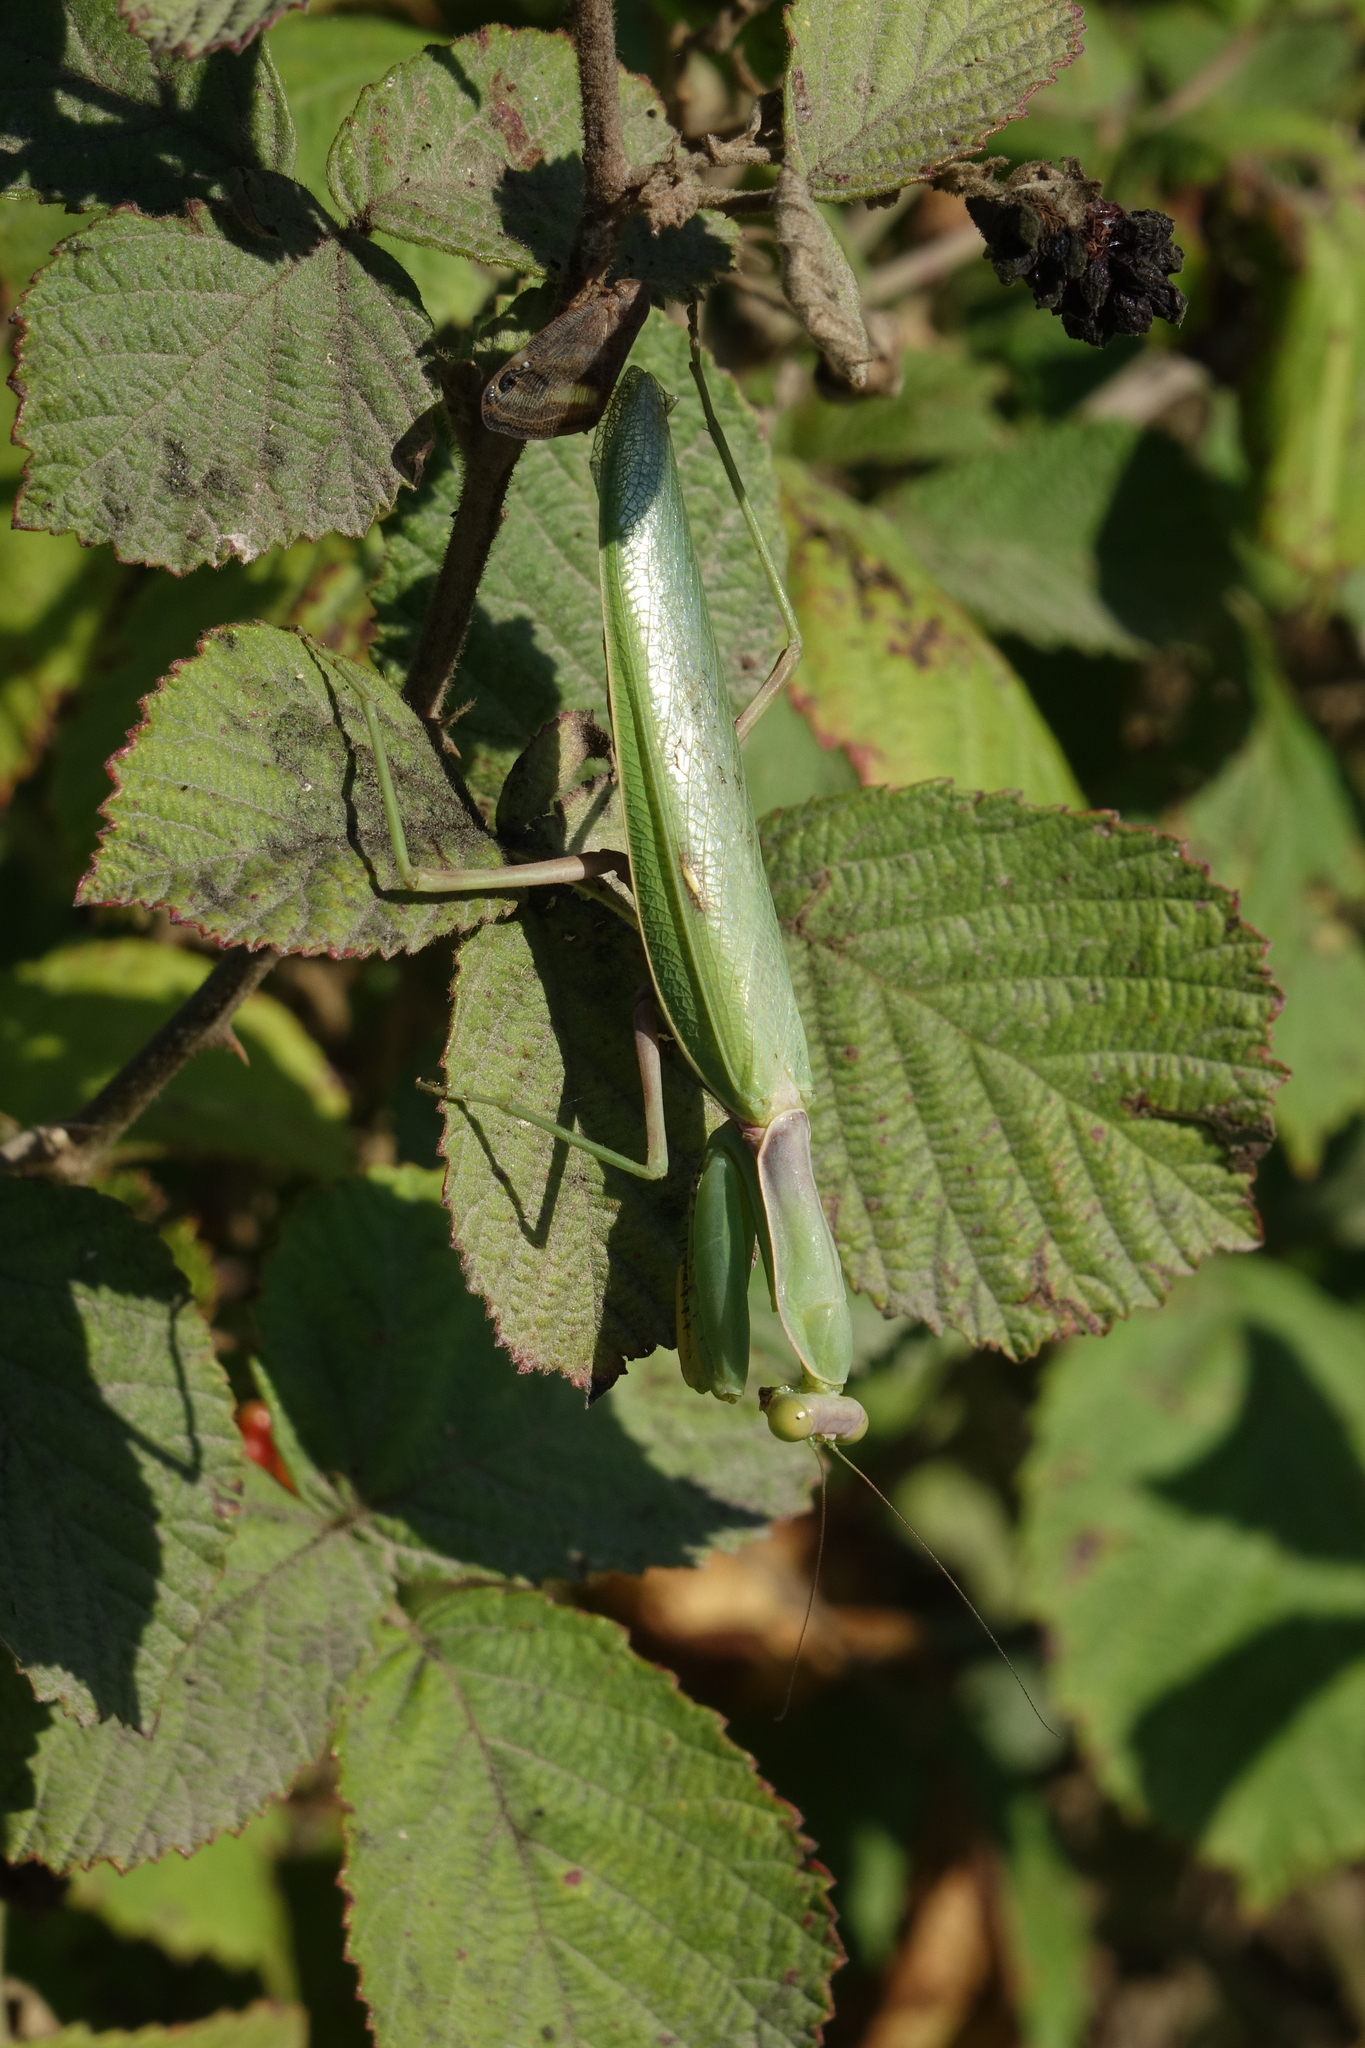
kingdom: Animalia
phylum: Arthropoda
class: Insecta
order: Mantodea
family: Mantidae
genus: Hierodula
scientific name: Hierodula transcaucasica
